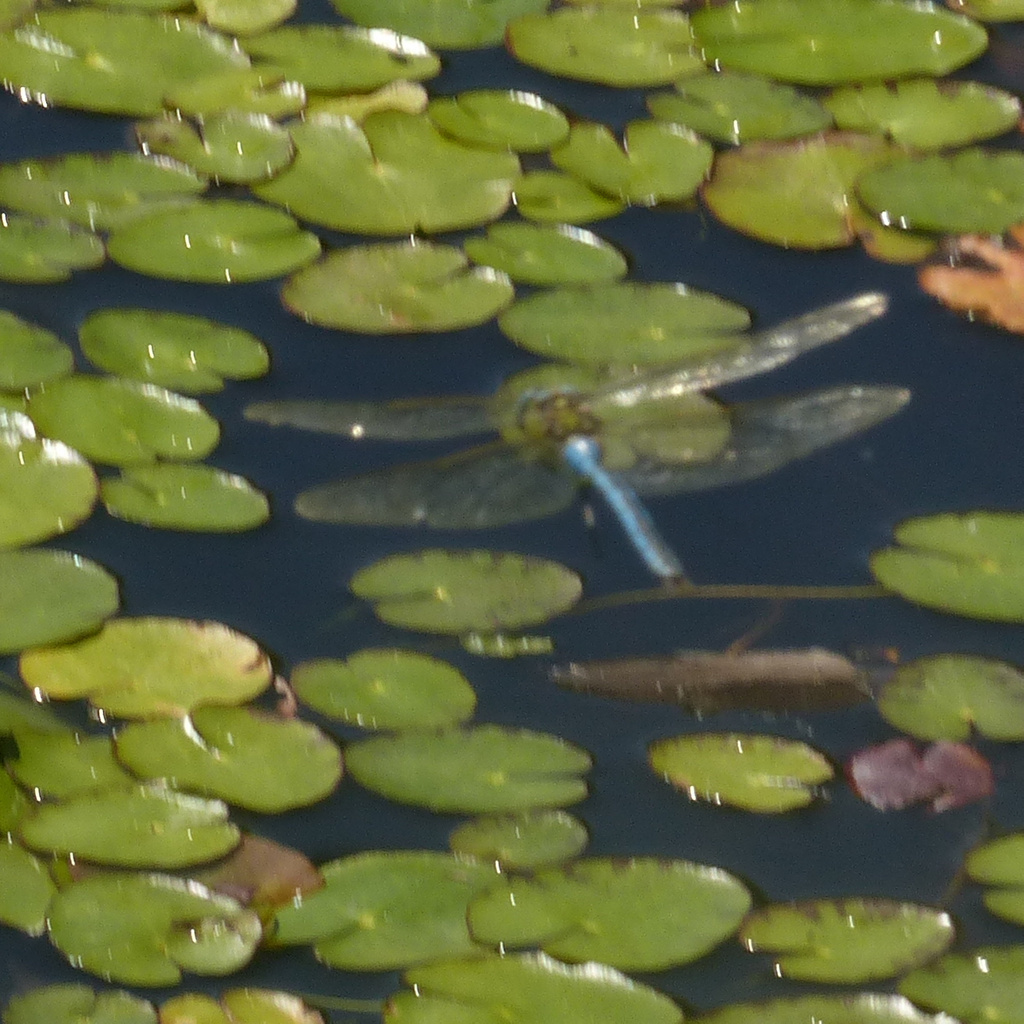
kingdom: Animalia
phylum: Arthropoda
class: Insecta
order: Odonata
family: Aeshnidae
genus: Anax
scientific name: Anax imperator
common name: Emperor dragonfly
